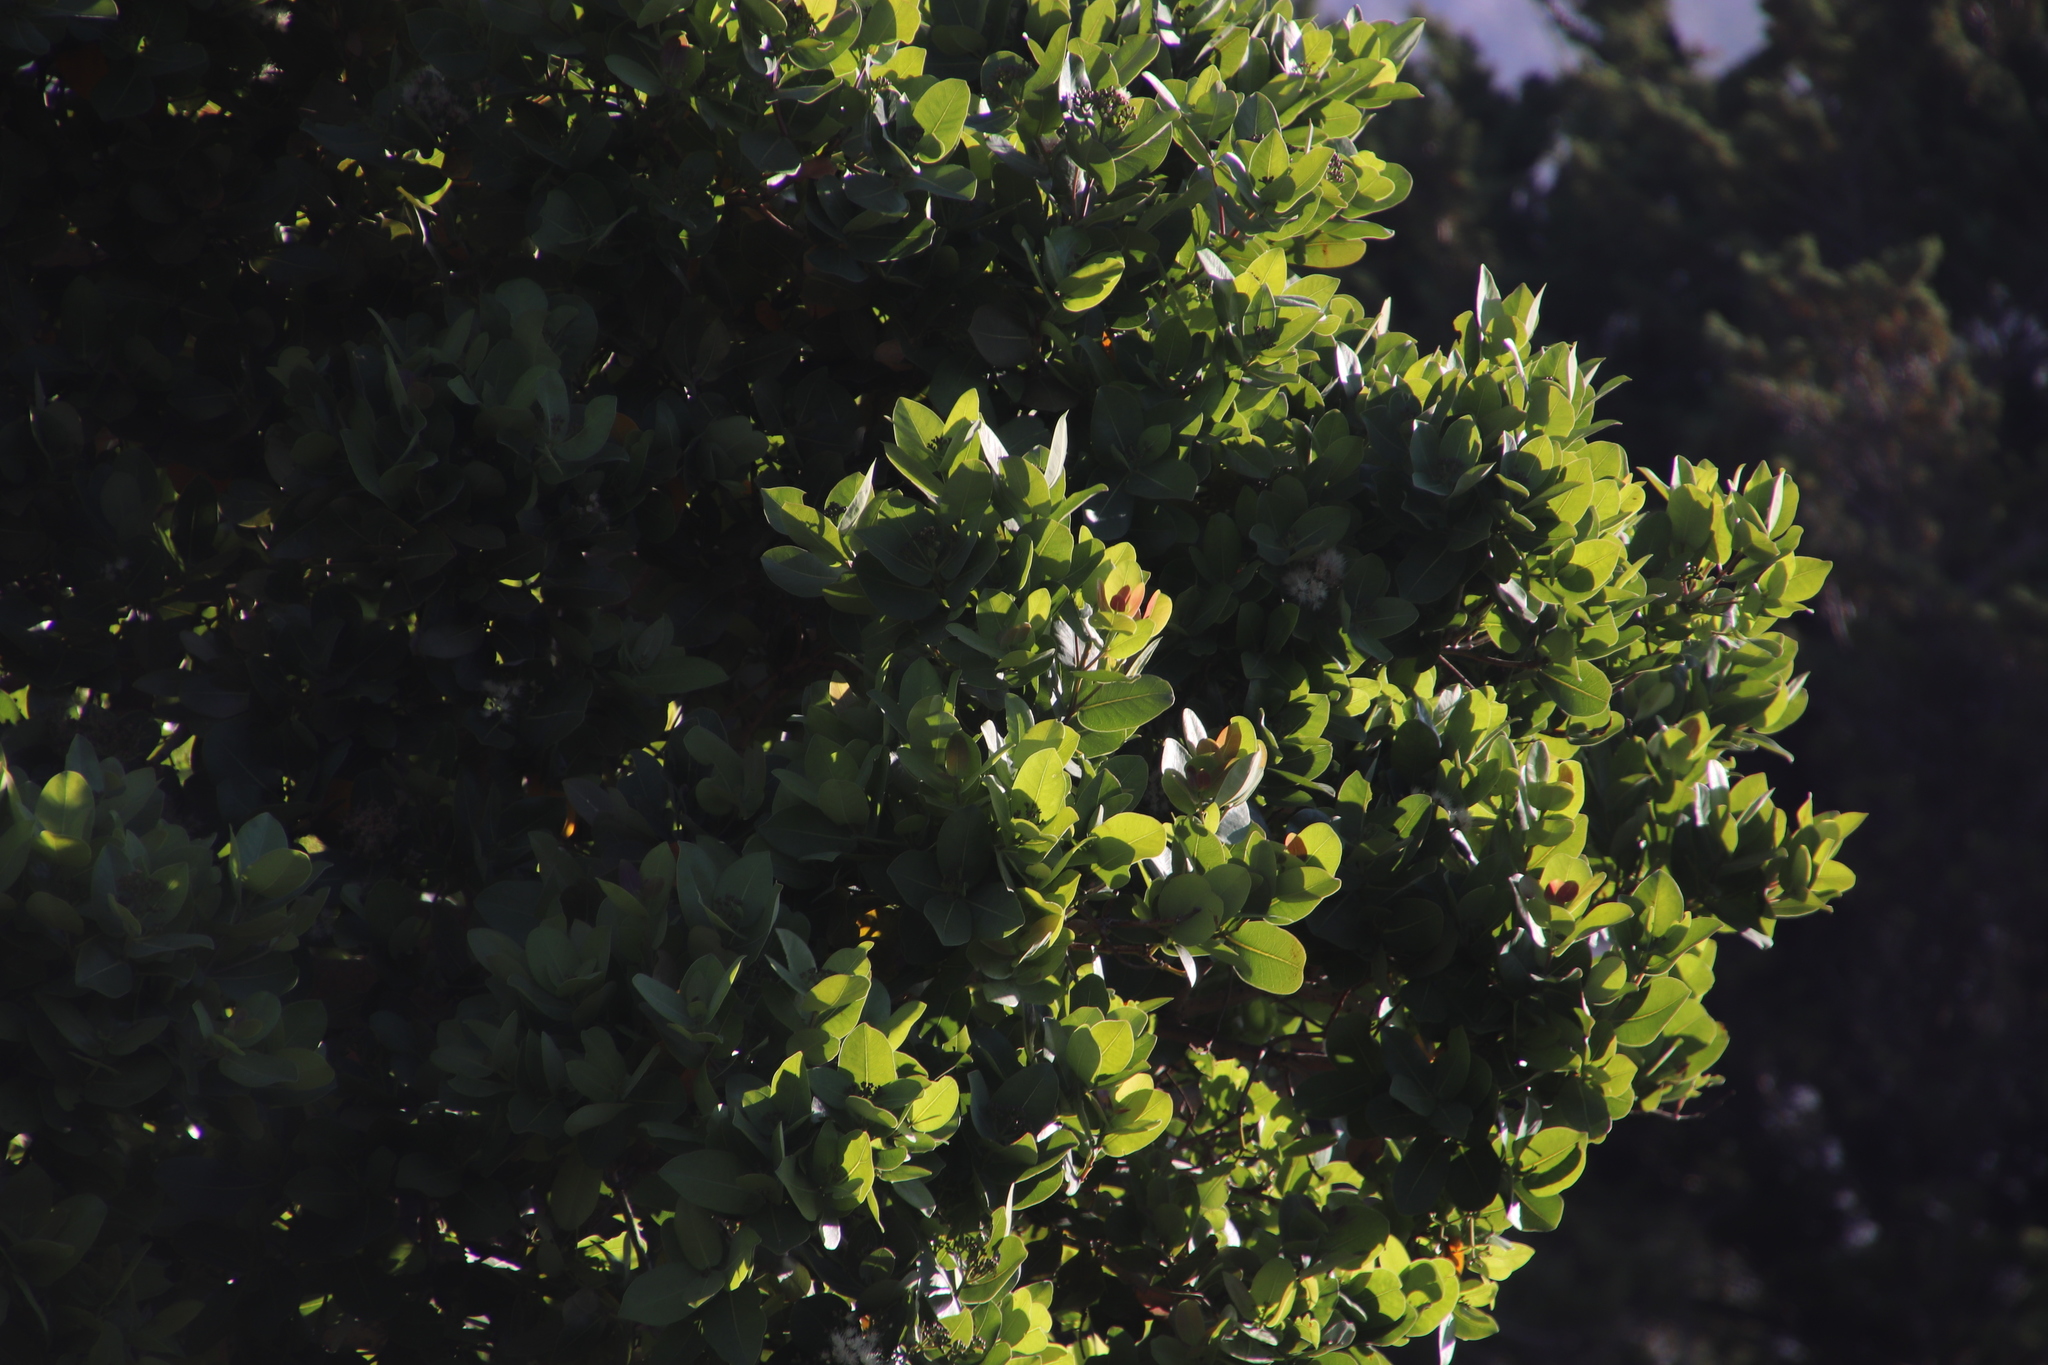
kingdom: Plantae
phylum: Tracheophyta
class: Magnoliopsida
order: Myrtales
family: Myrtaceae
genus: Syzygium
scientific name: Syzygium cordatum
